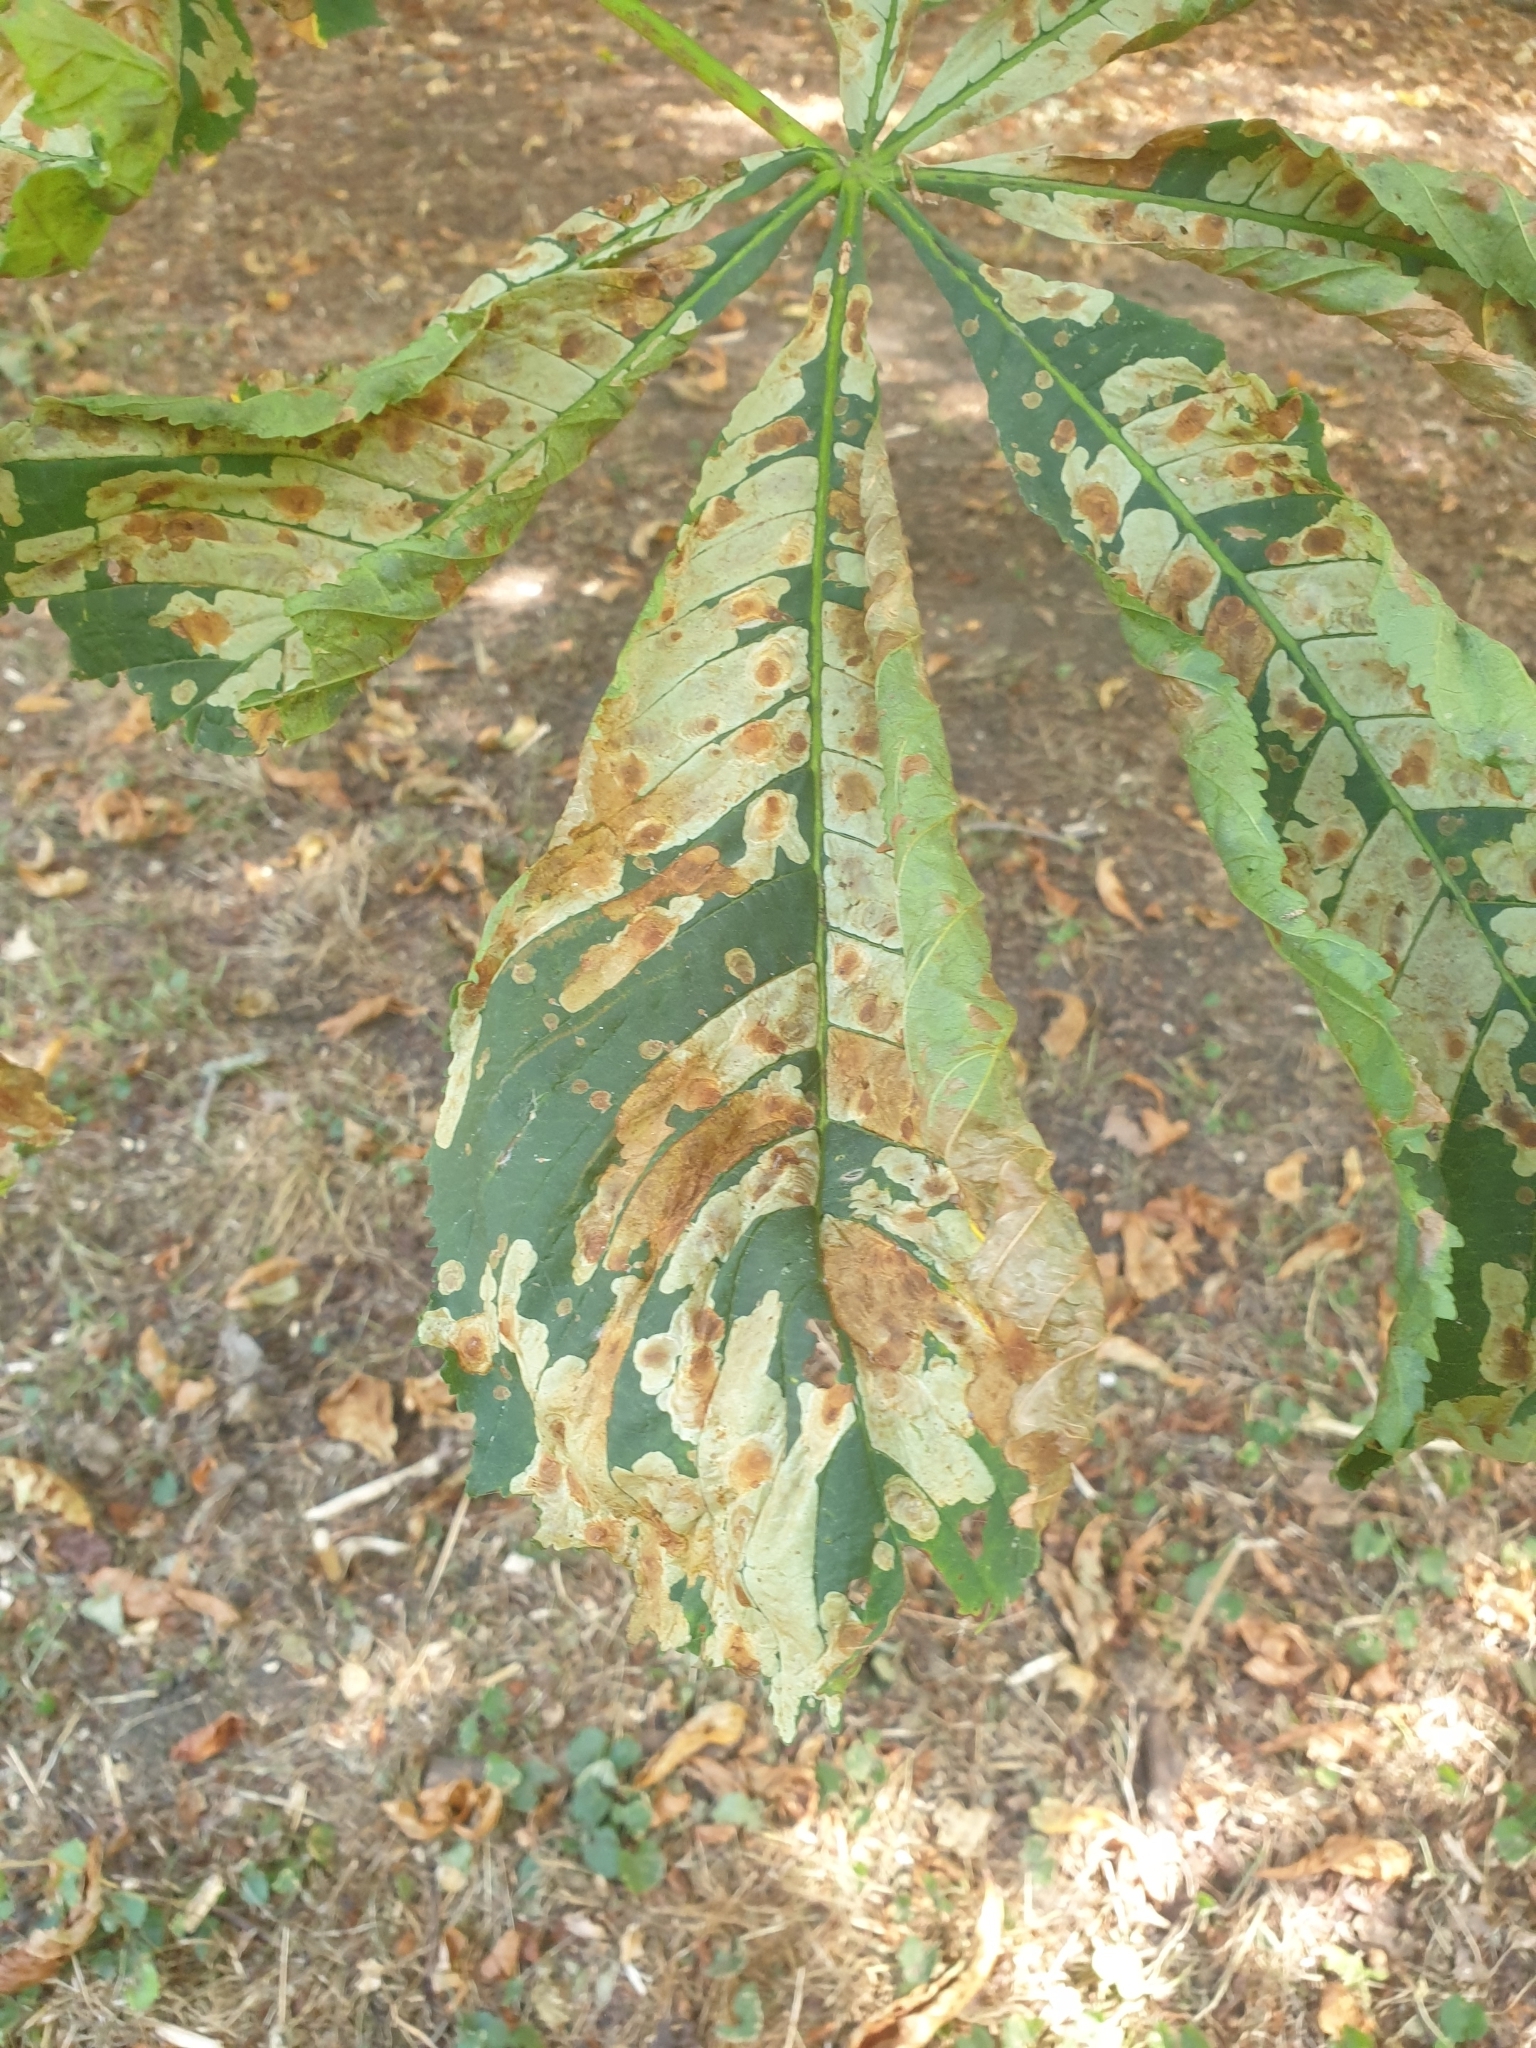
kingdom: Animalia
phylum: Arthropoda
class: Insecta
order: Lepidoptera
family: Gracillariidae
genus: Cameraria
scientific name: Cameraria ohridella
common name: Horse-chestnut leaf-miner
